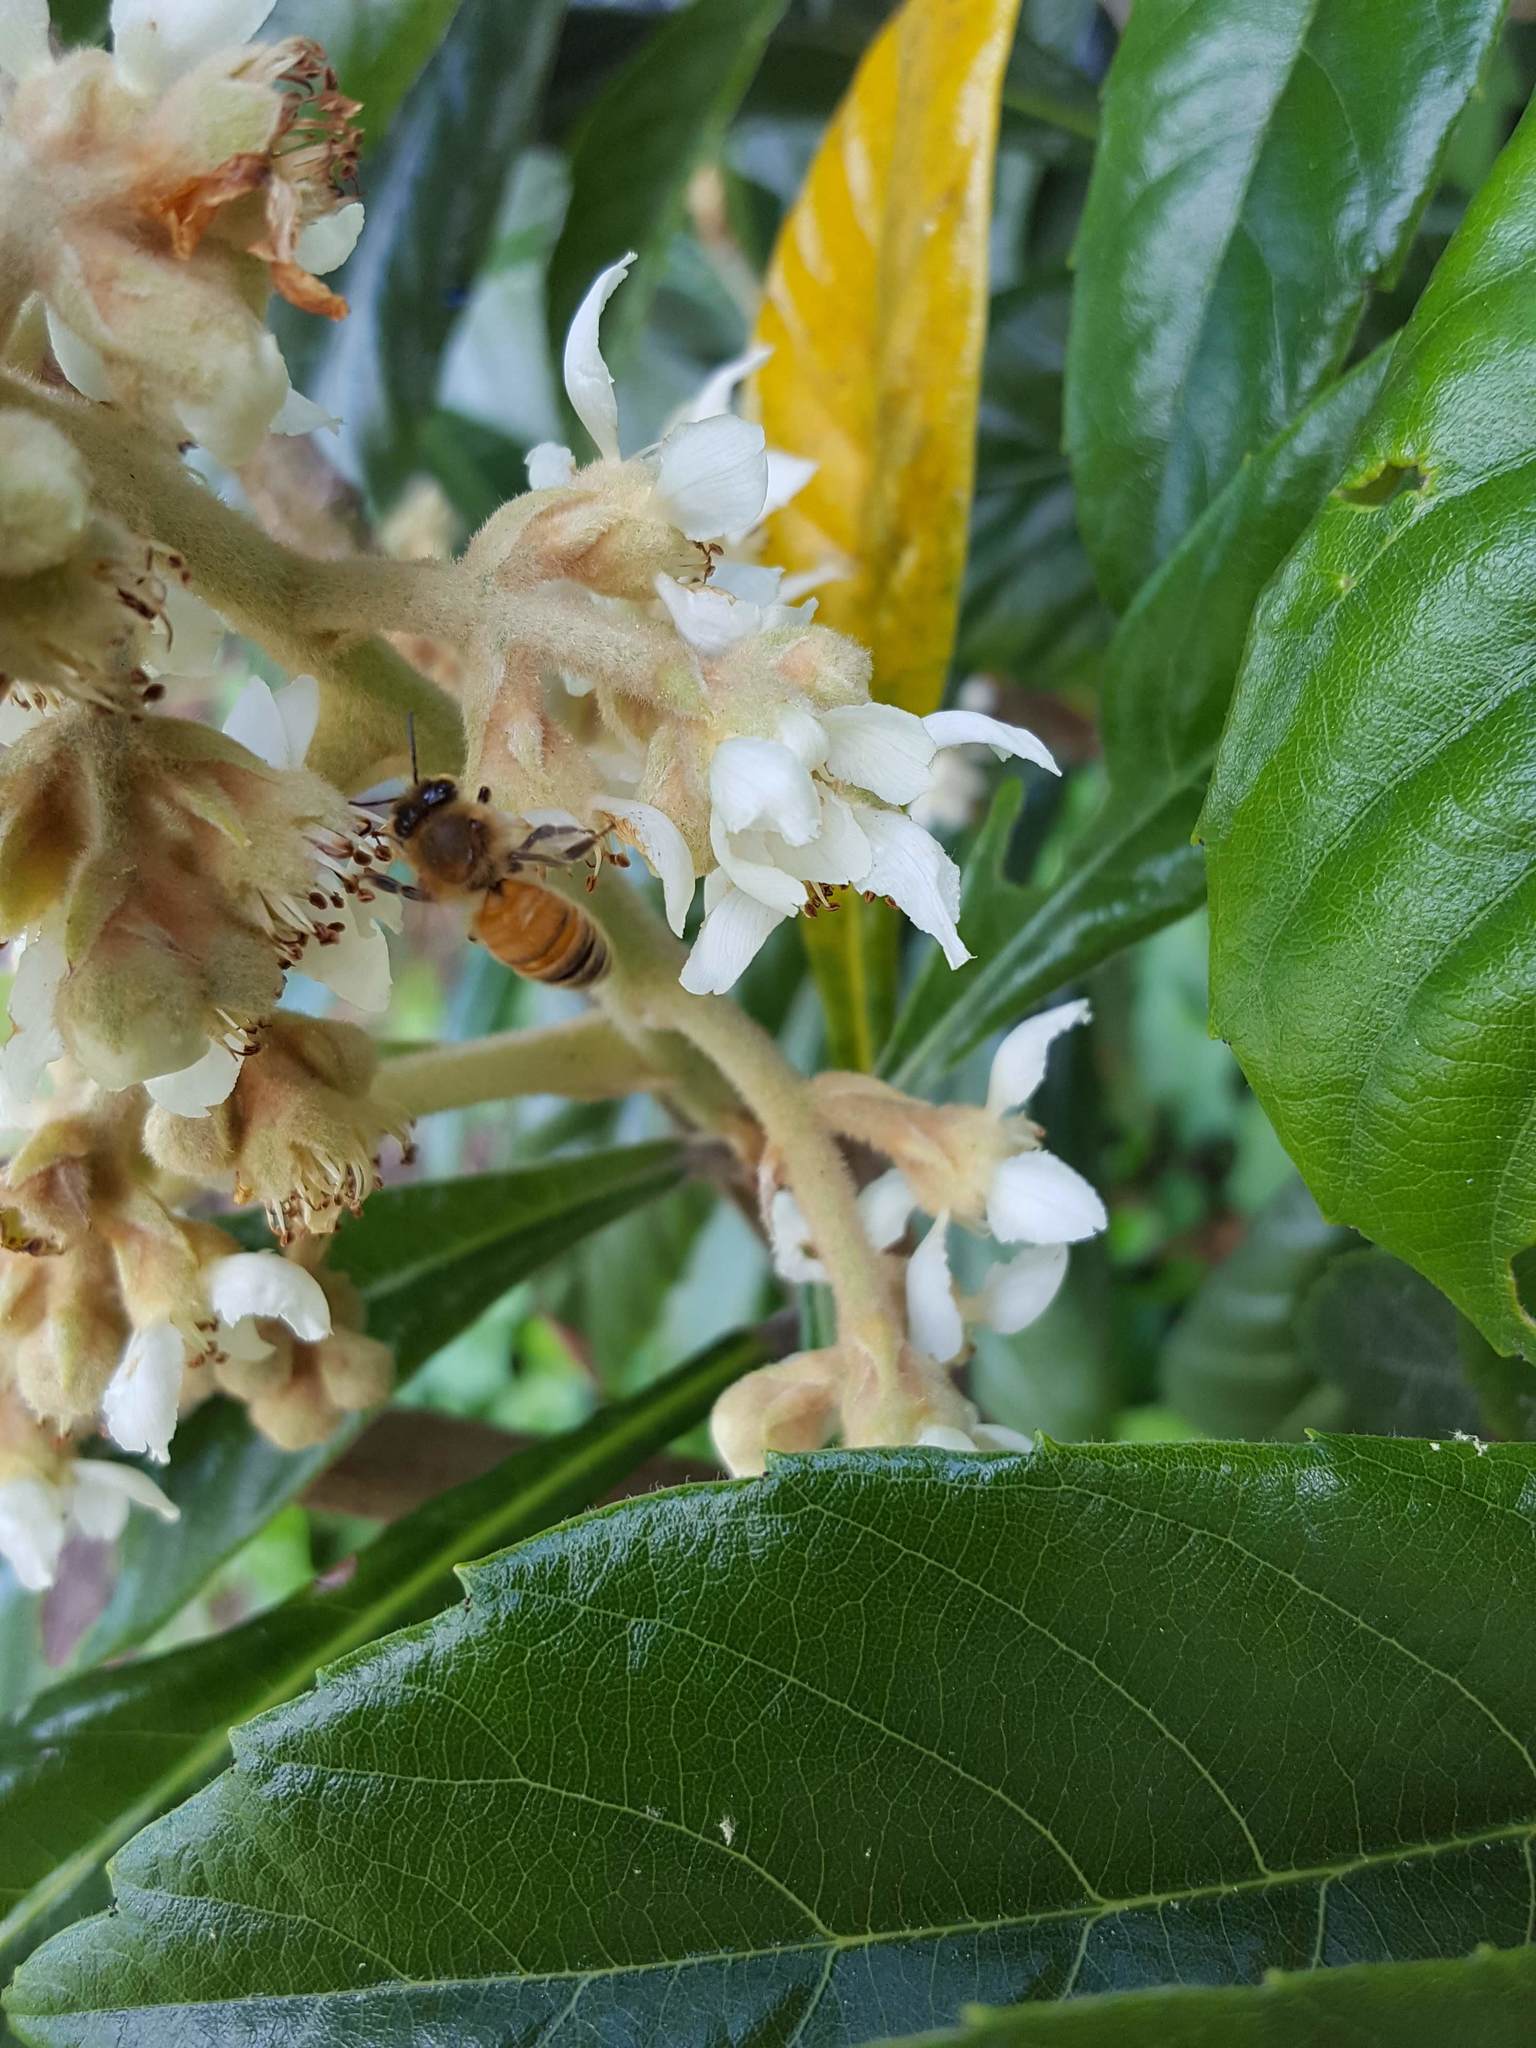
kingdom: Animalia
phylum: Arthropoda
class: Insecta
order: Hymenoptera
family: Apidae
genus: Apis
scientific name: Apis mellifera
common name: Honey bee
